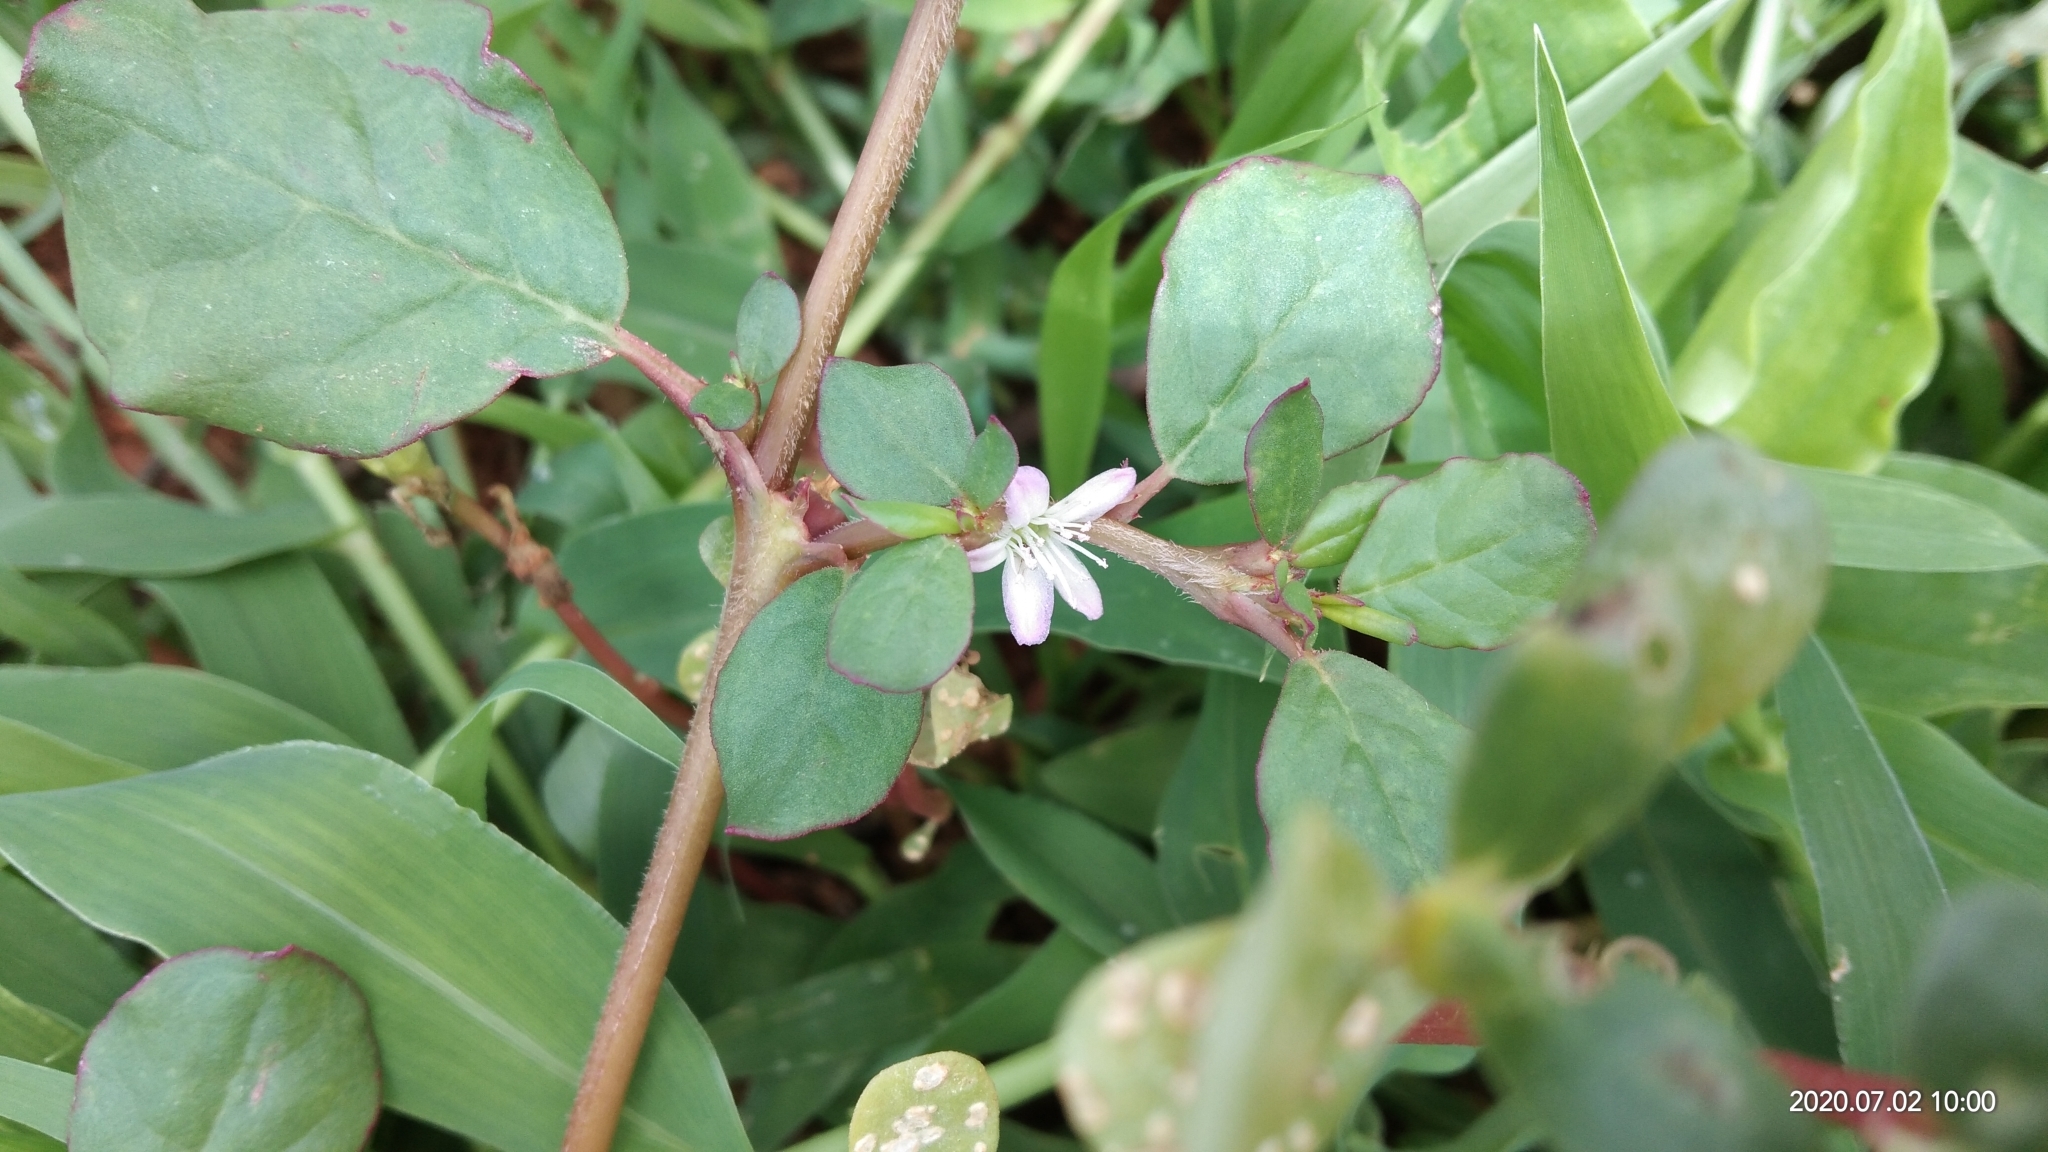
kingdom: Plantae
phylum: Tracheophyta
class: Magnoliopsida
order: Caryophyllales
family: Aizoaceae
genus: Trianthema
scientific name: Trianthema portulacastrum
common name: Desert horsepurslane
